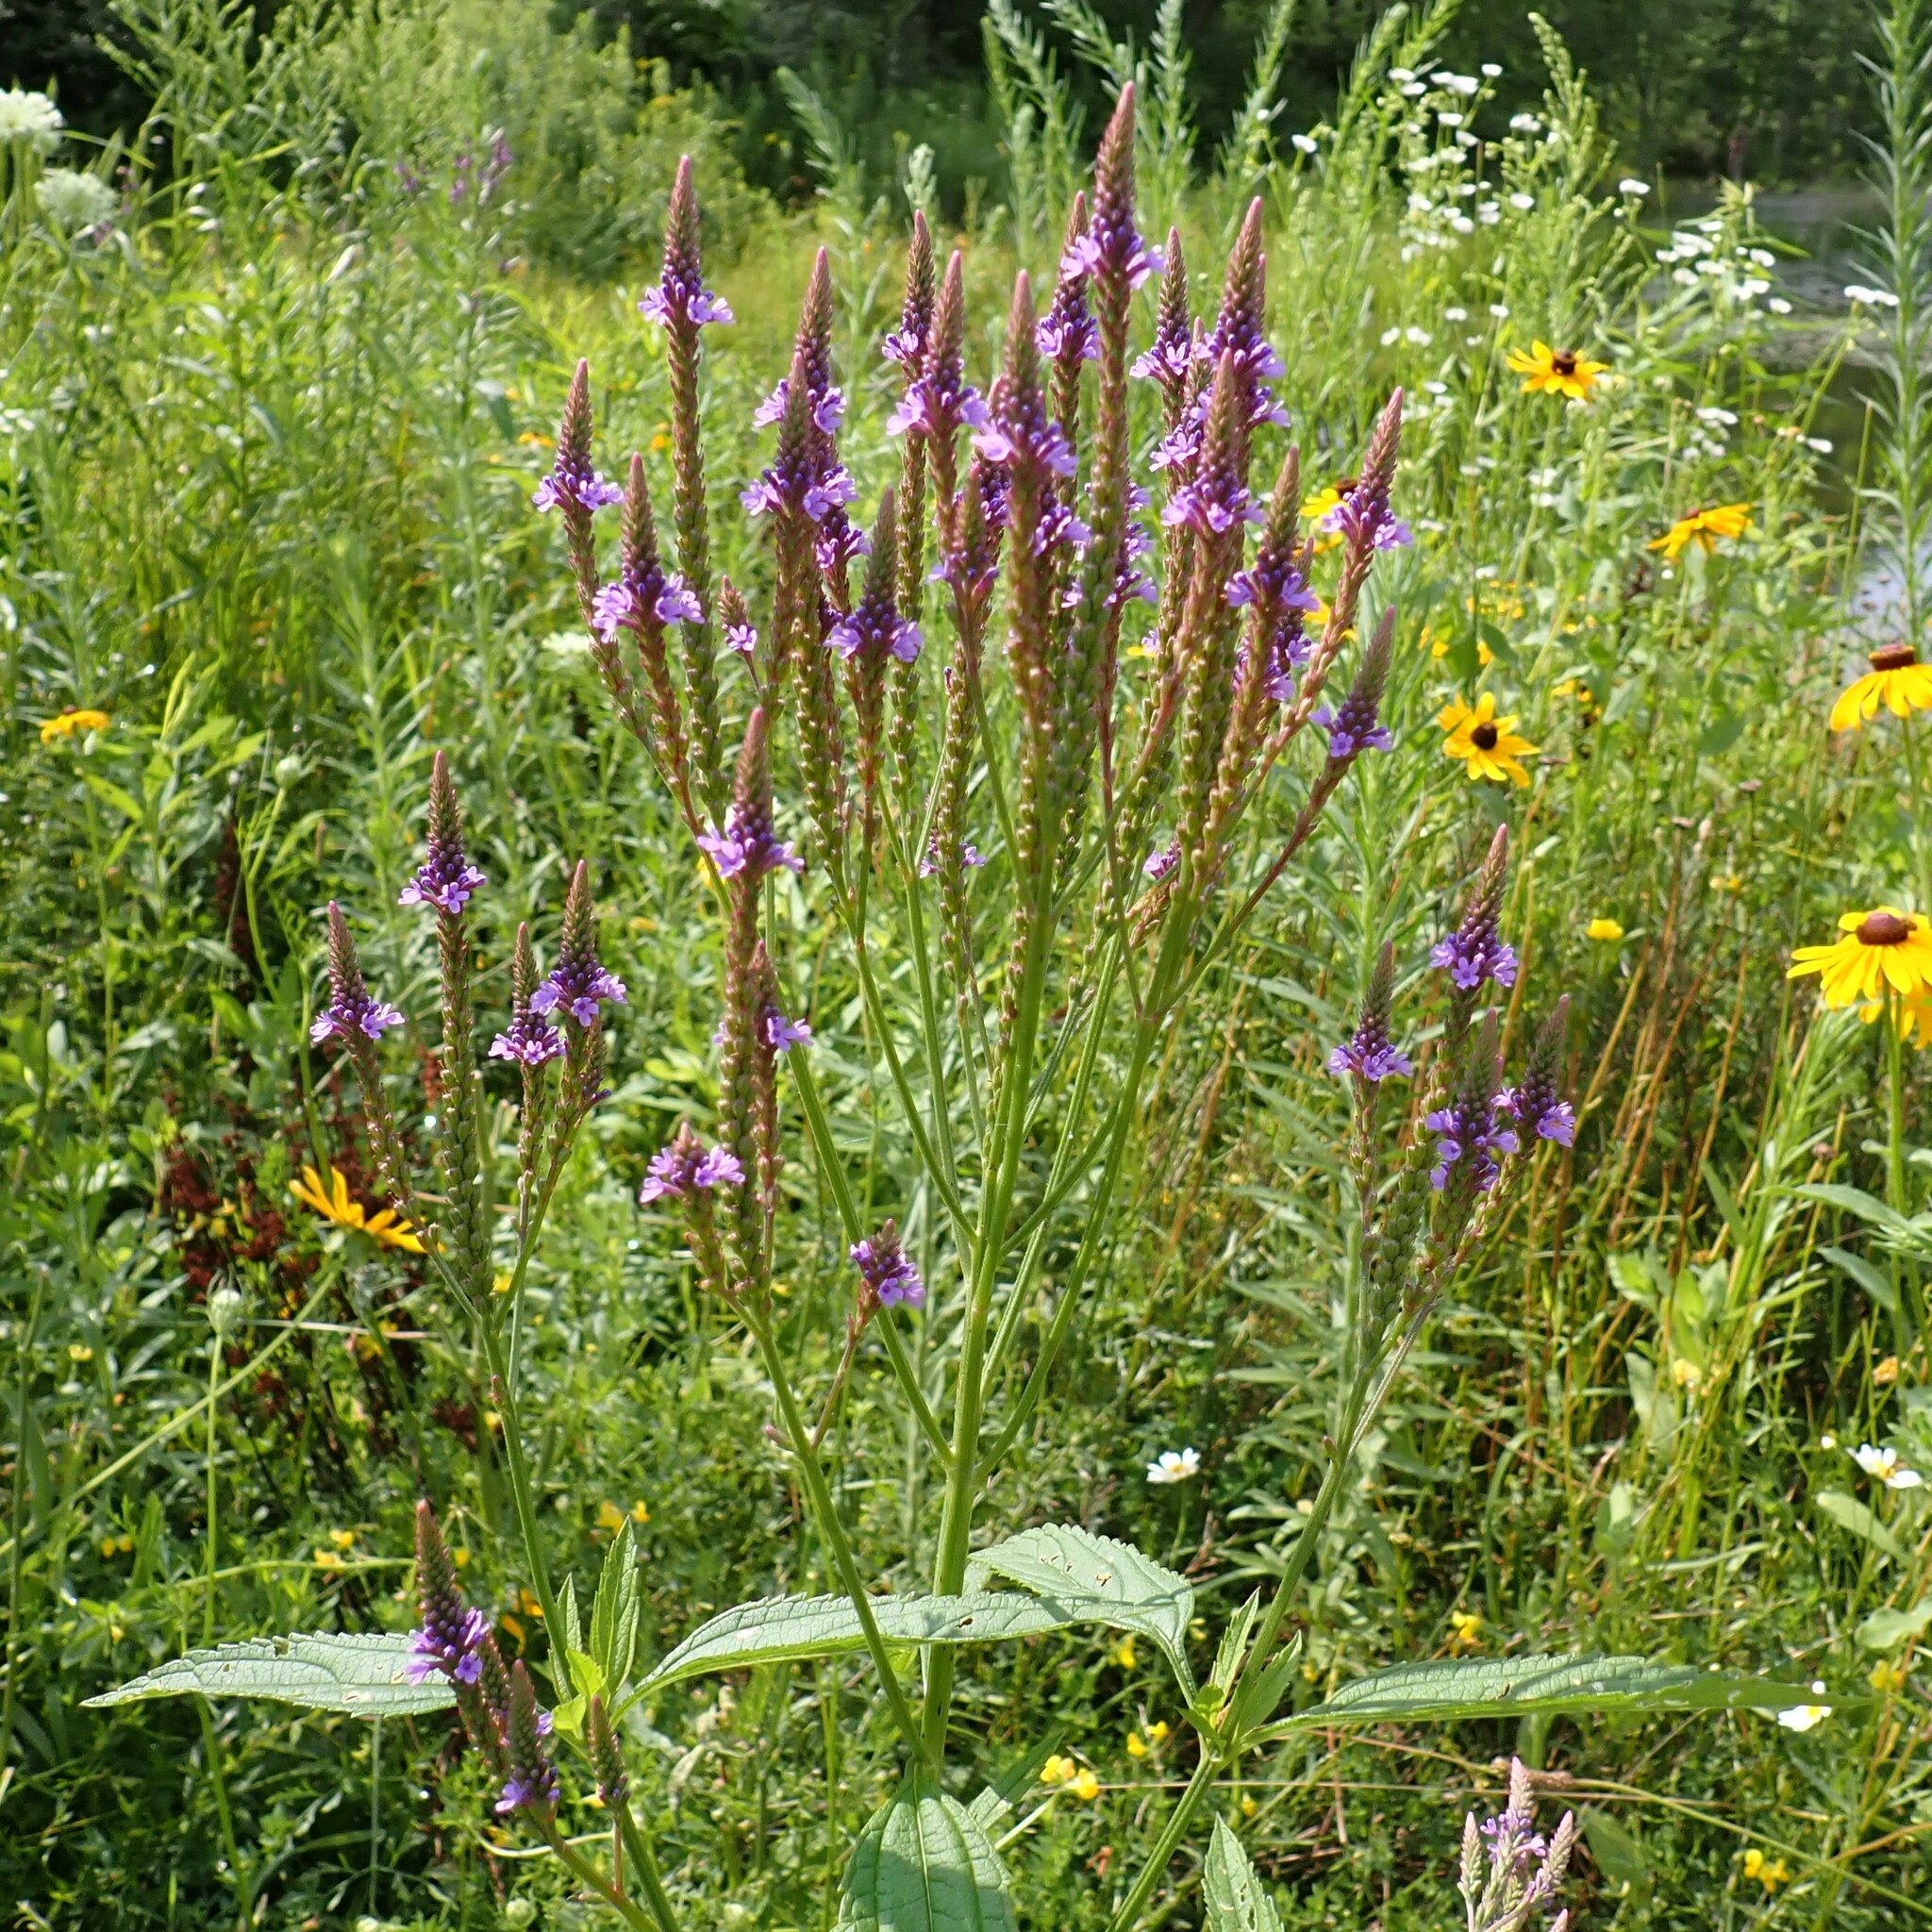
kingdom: Plantae
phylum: Tracheophyta
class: Magnoliopsida
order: Lamiales
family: Verbenaceae
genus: Verbena
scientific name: Verbena hastata
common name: American blue vervain
